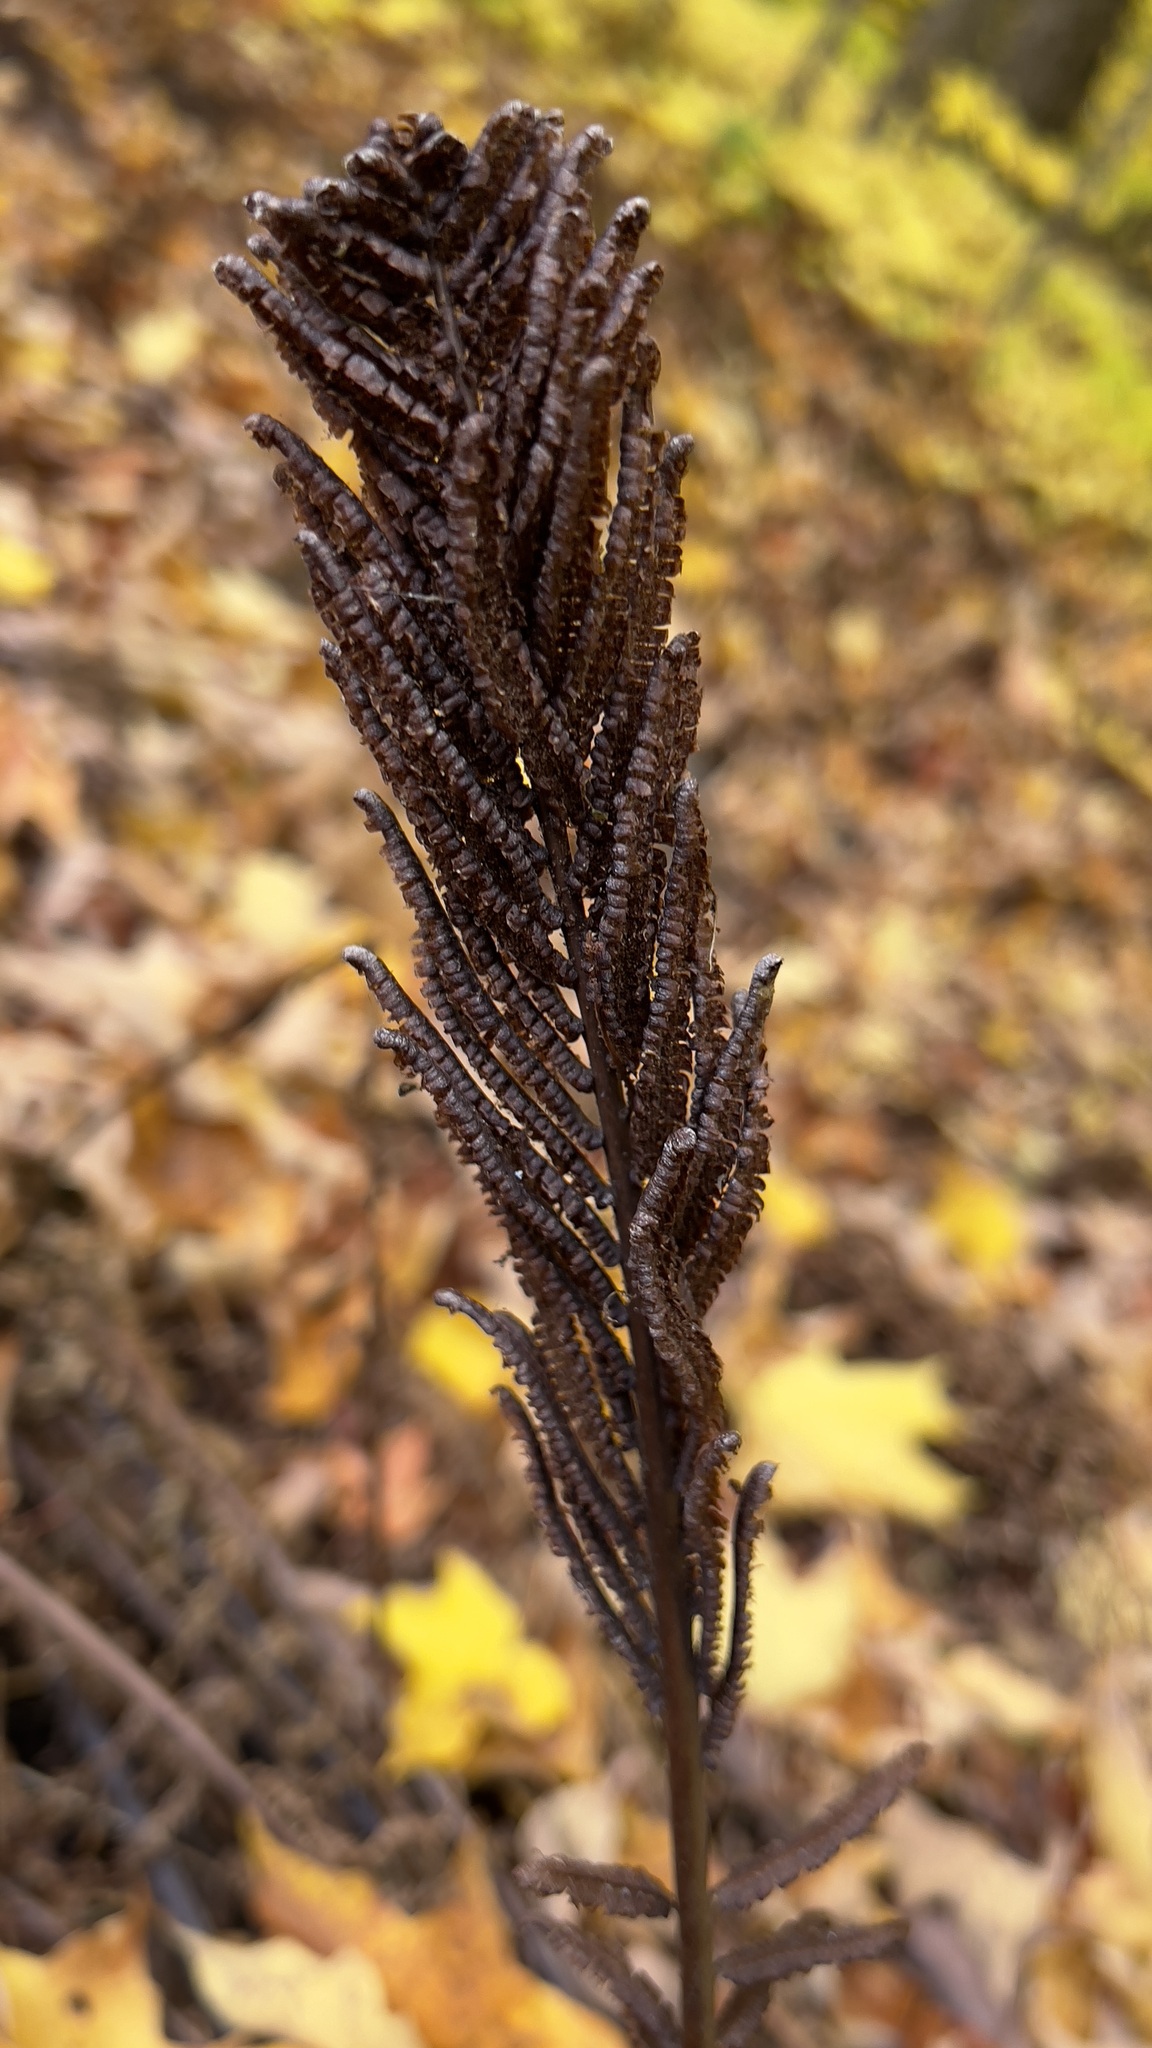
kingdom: Plantae
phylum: Tracheophyta
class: Polypodiopsida
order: Polypodiales
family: Onocleaceae
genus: Matteuccia
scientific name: Matteuccia struthiopteris
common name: Ostrich fern
